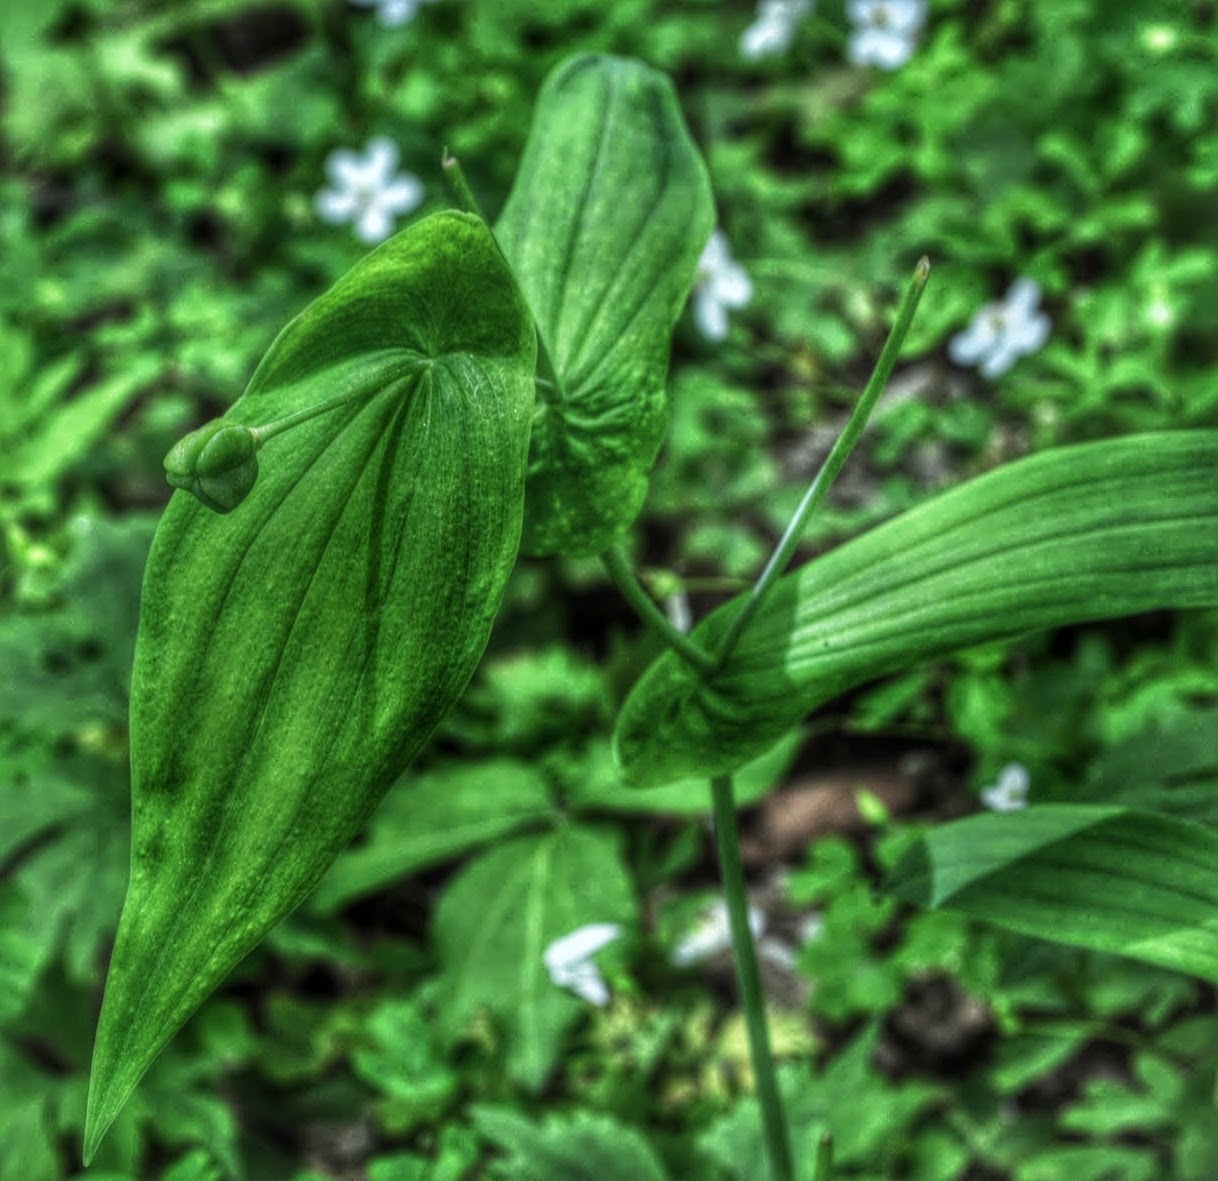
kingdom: Plantae
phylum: Tracheophyta
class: Liliopsida
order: Liliales
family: Colchicaceae
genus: Uvularia
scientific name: Uvularia grandiflora
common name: Bellwort
